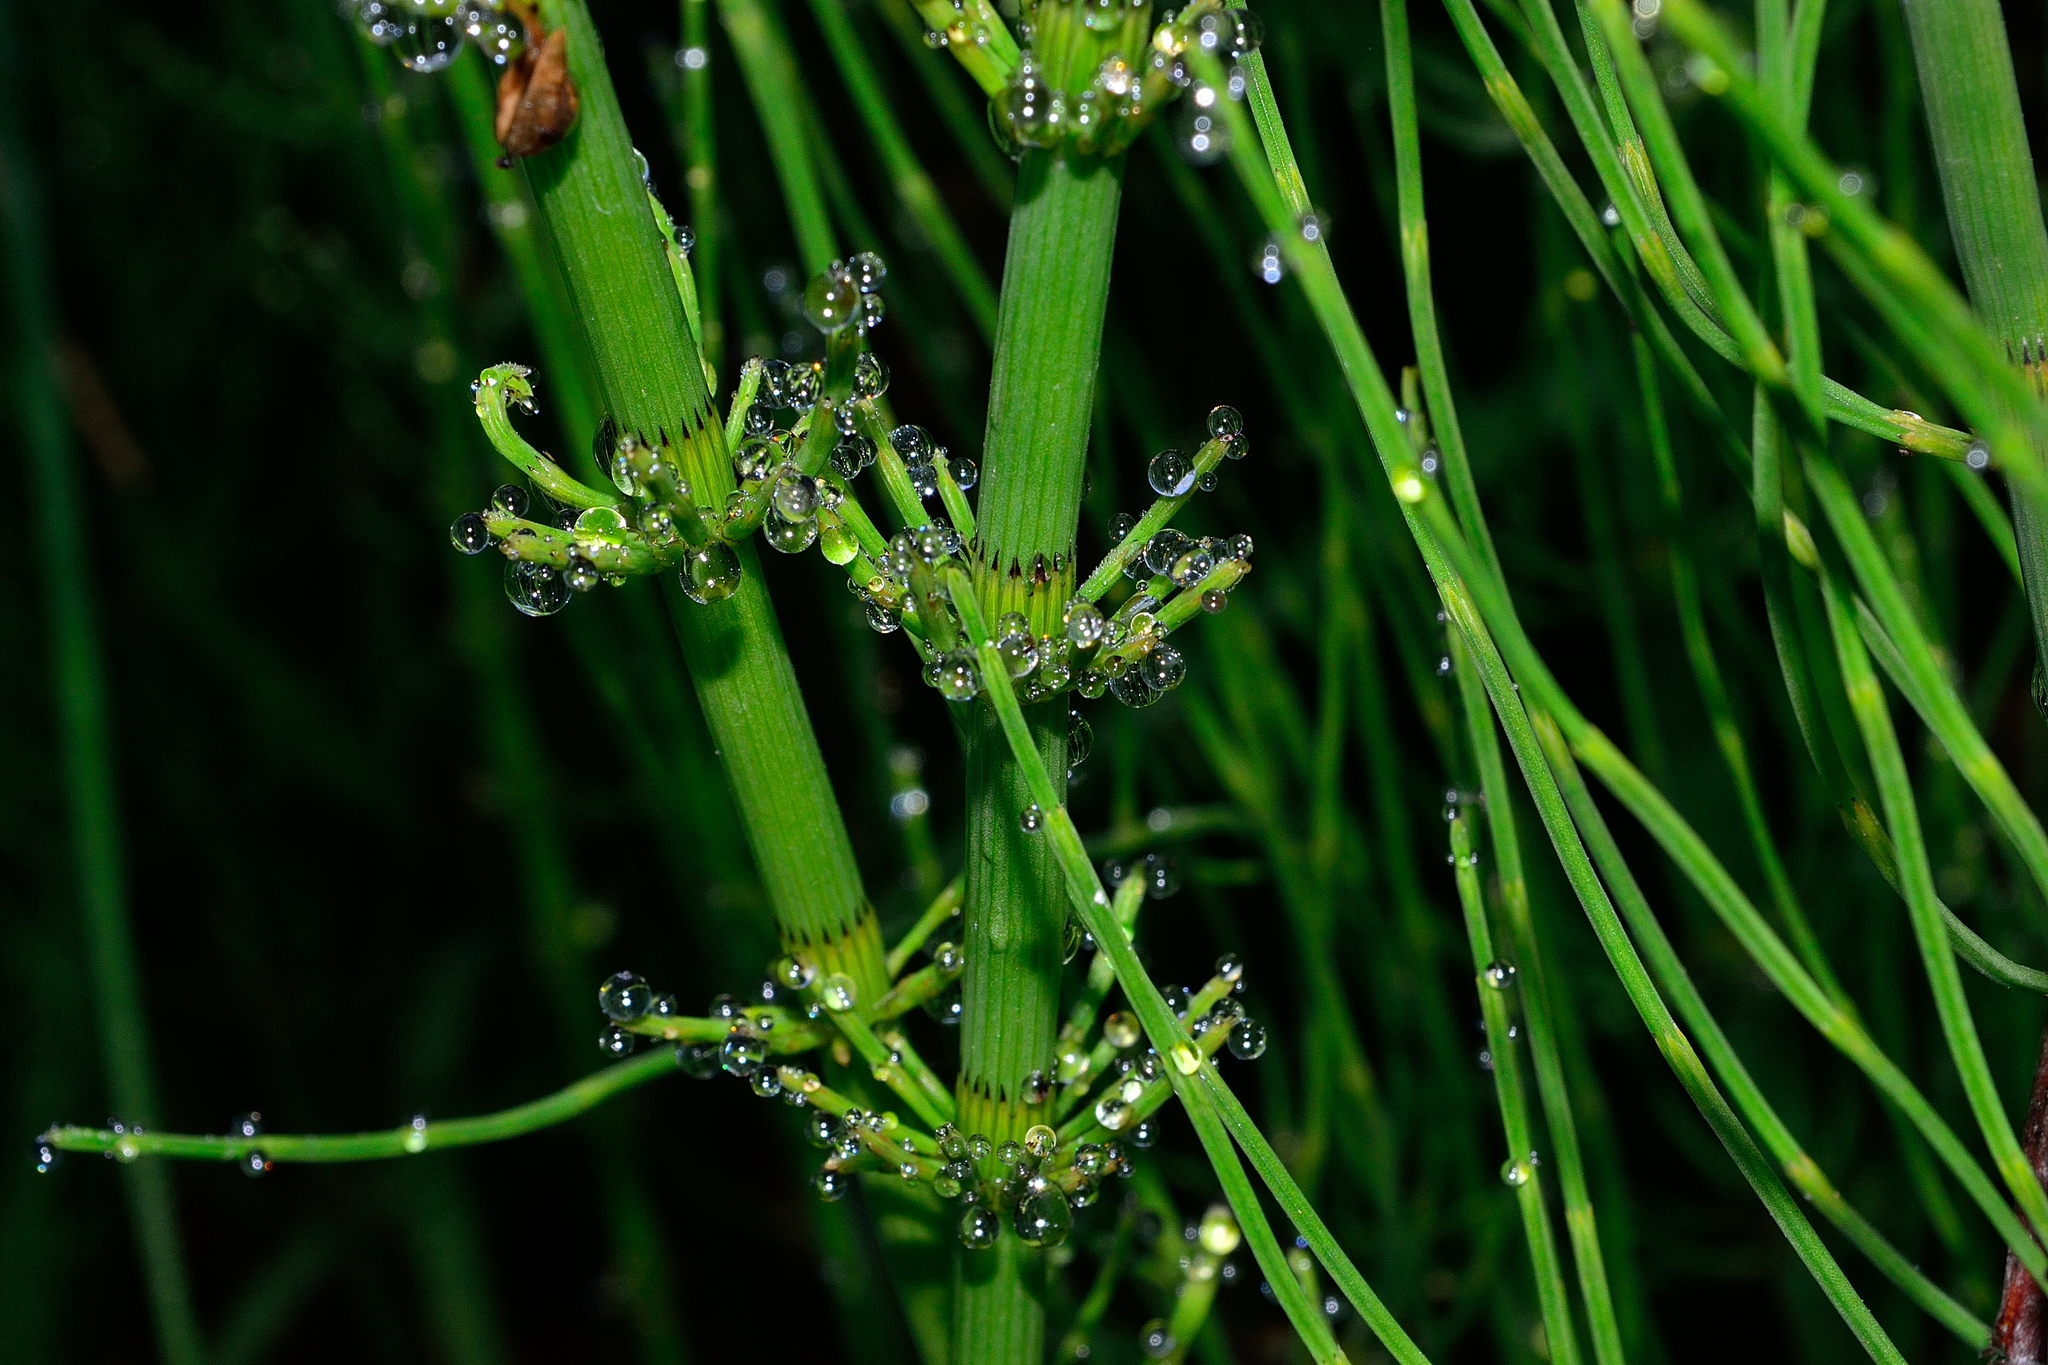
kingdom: Plantae
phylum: Tracheophyta
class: Polypodiopsida
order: Equisetales
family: Equisetaceae
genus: Equisetum
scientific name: Equisetum fluviatile
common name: Water horsetail
